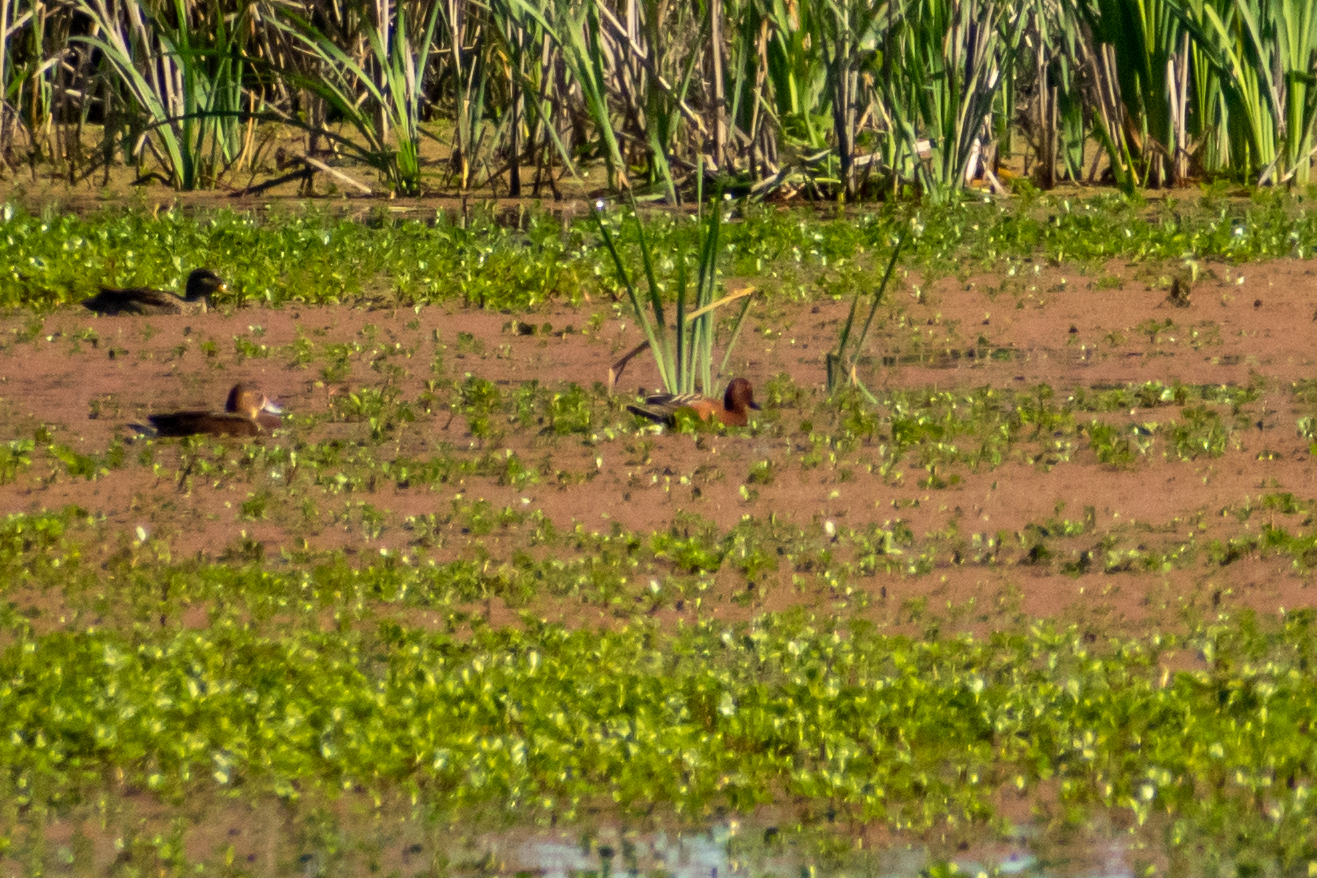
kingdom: Animalia
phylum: Chordata
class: Aves
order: Anseriformes
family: Anatidae
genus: Spatula
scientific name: Spatula cyanoptera
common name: Cinnamon teal
